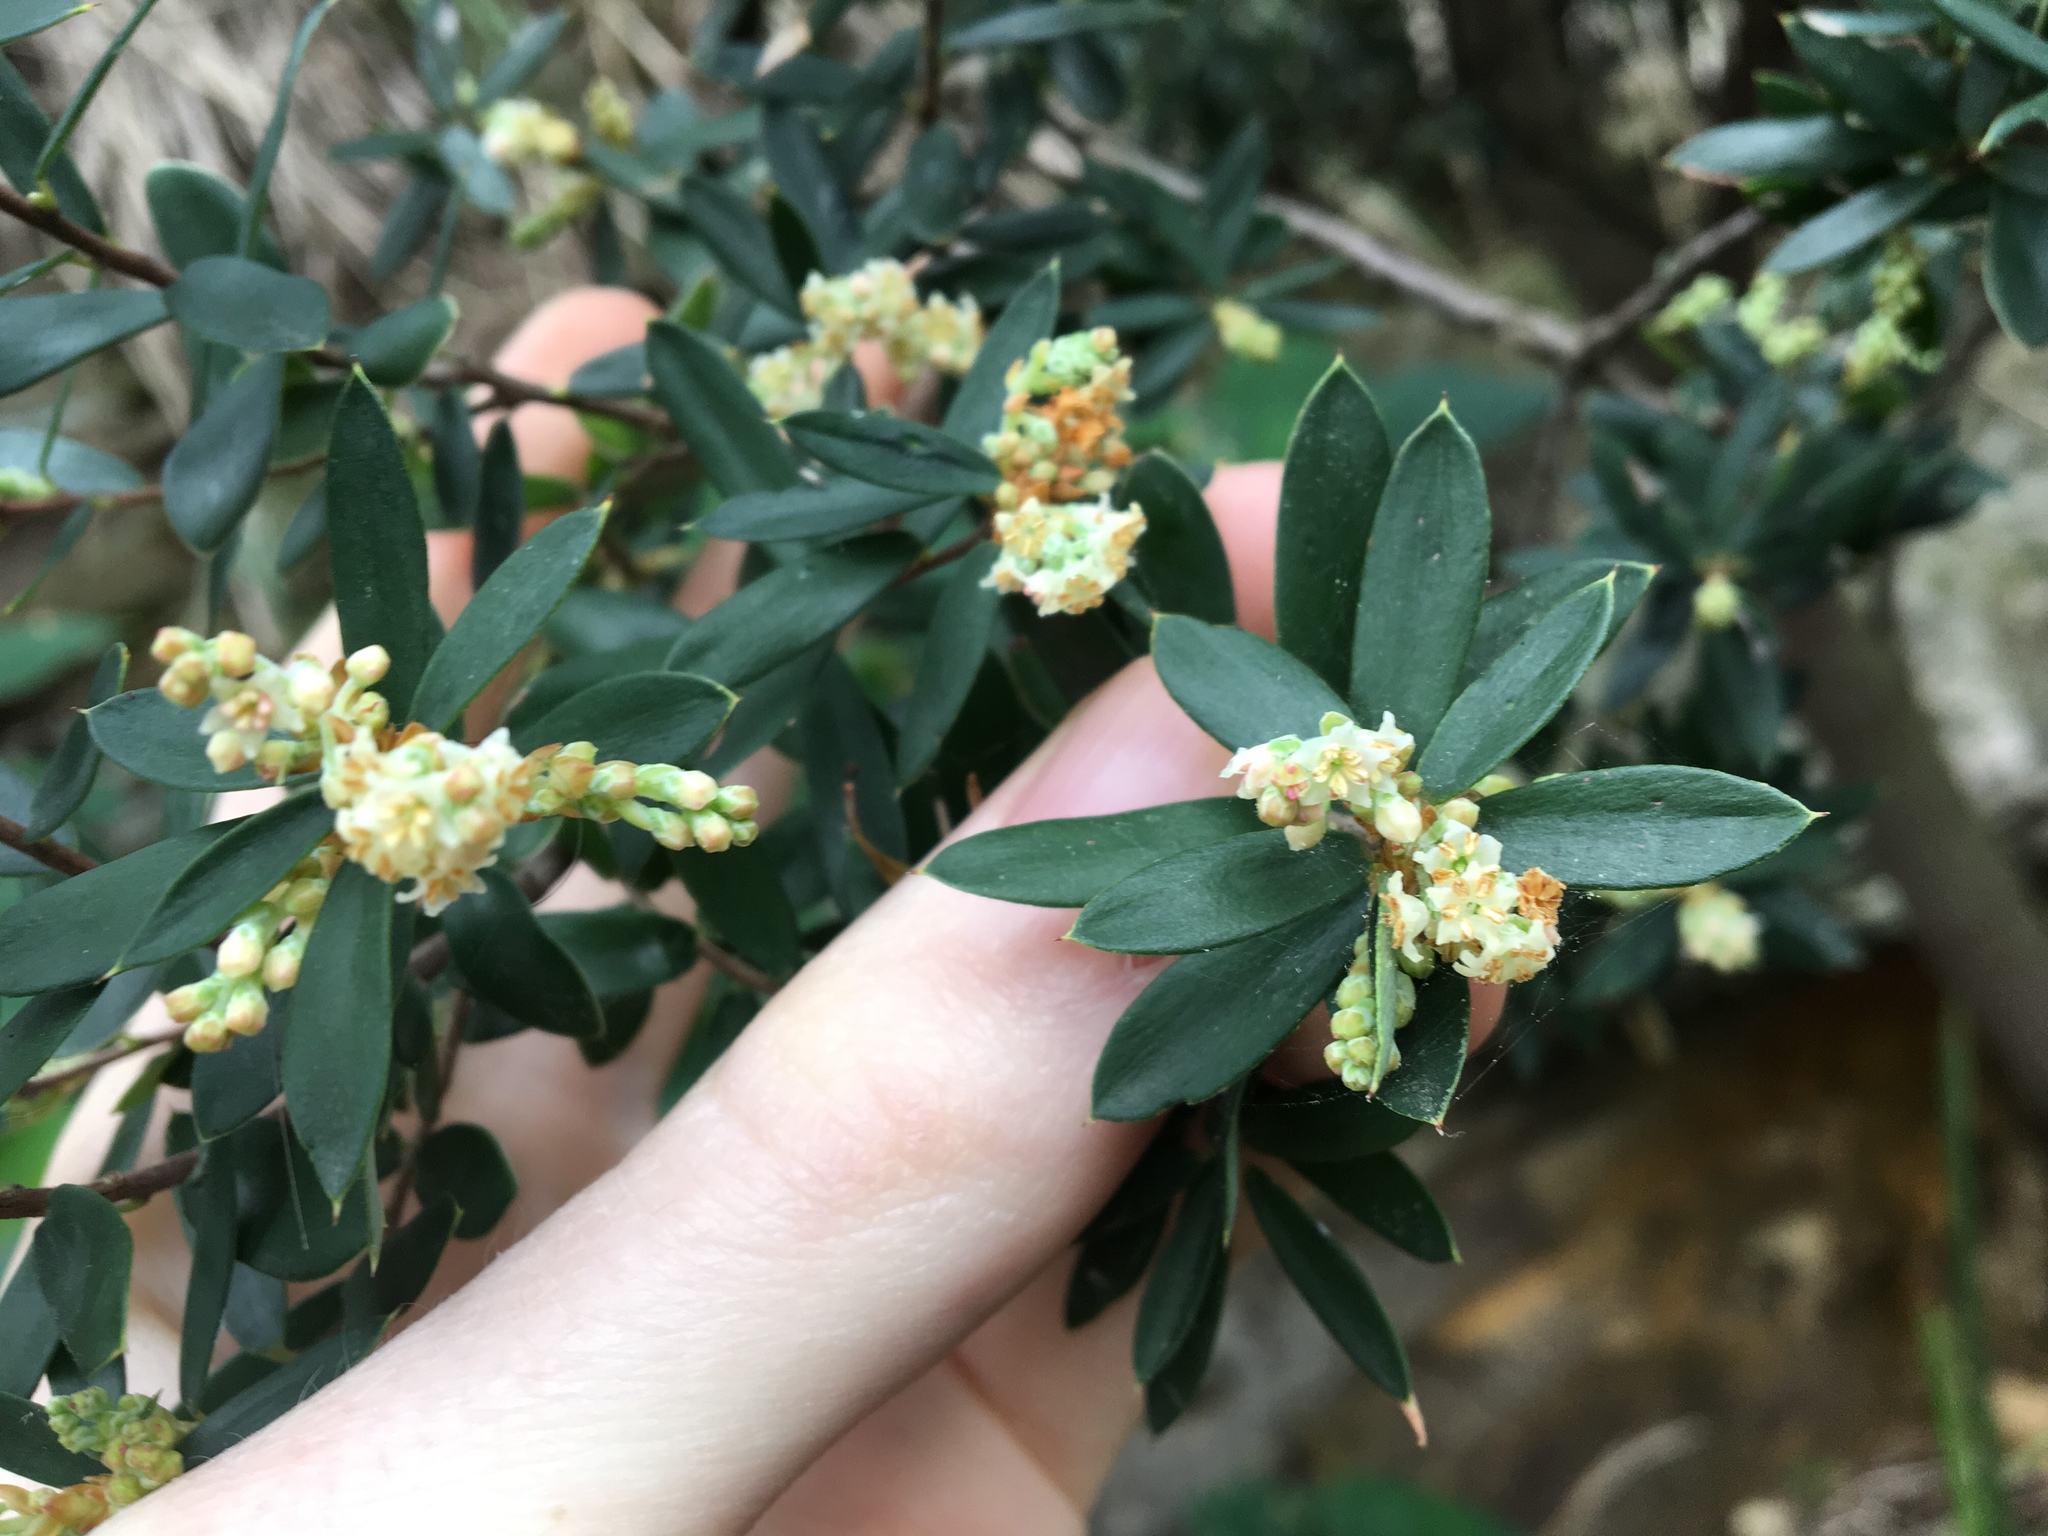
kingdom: Plantae
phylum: Tracheophyta
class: Magnoliopsida
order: Ericales
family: Ericaceae
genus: Monotoca
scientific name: Monotoca elliptica
